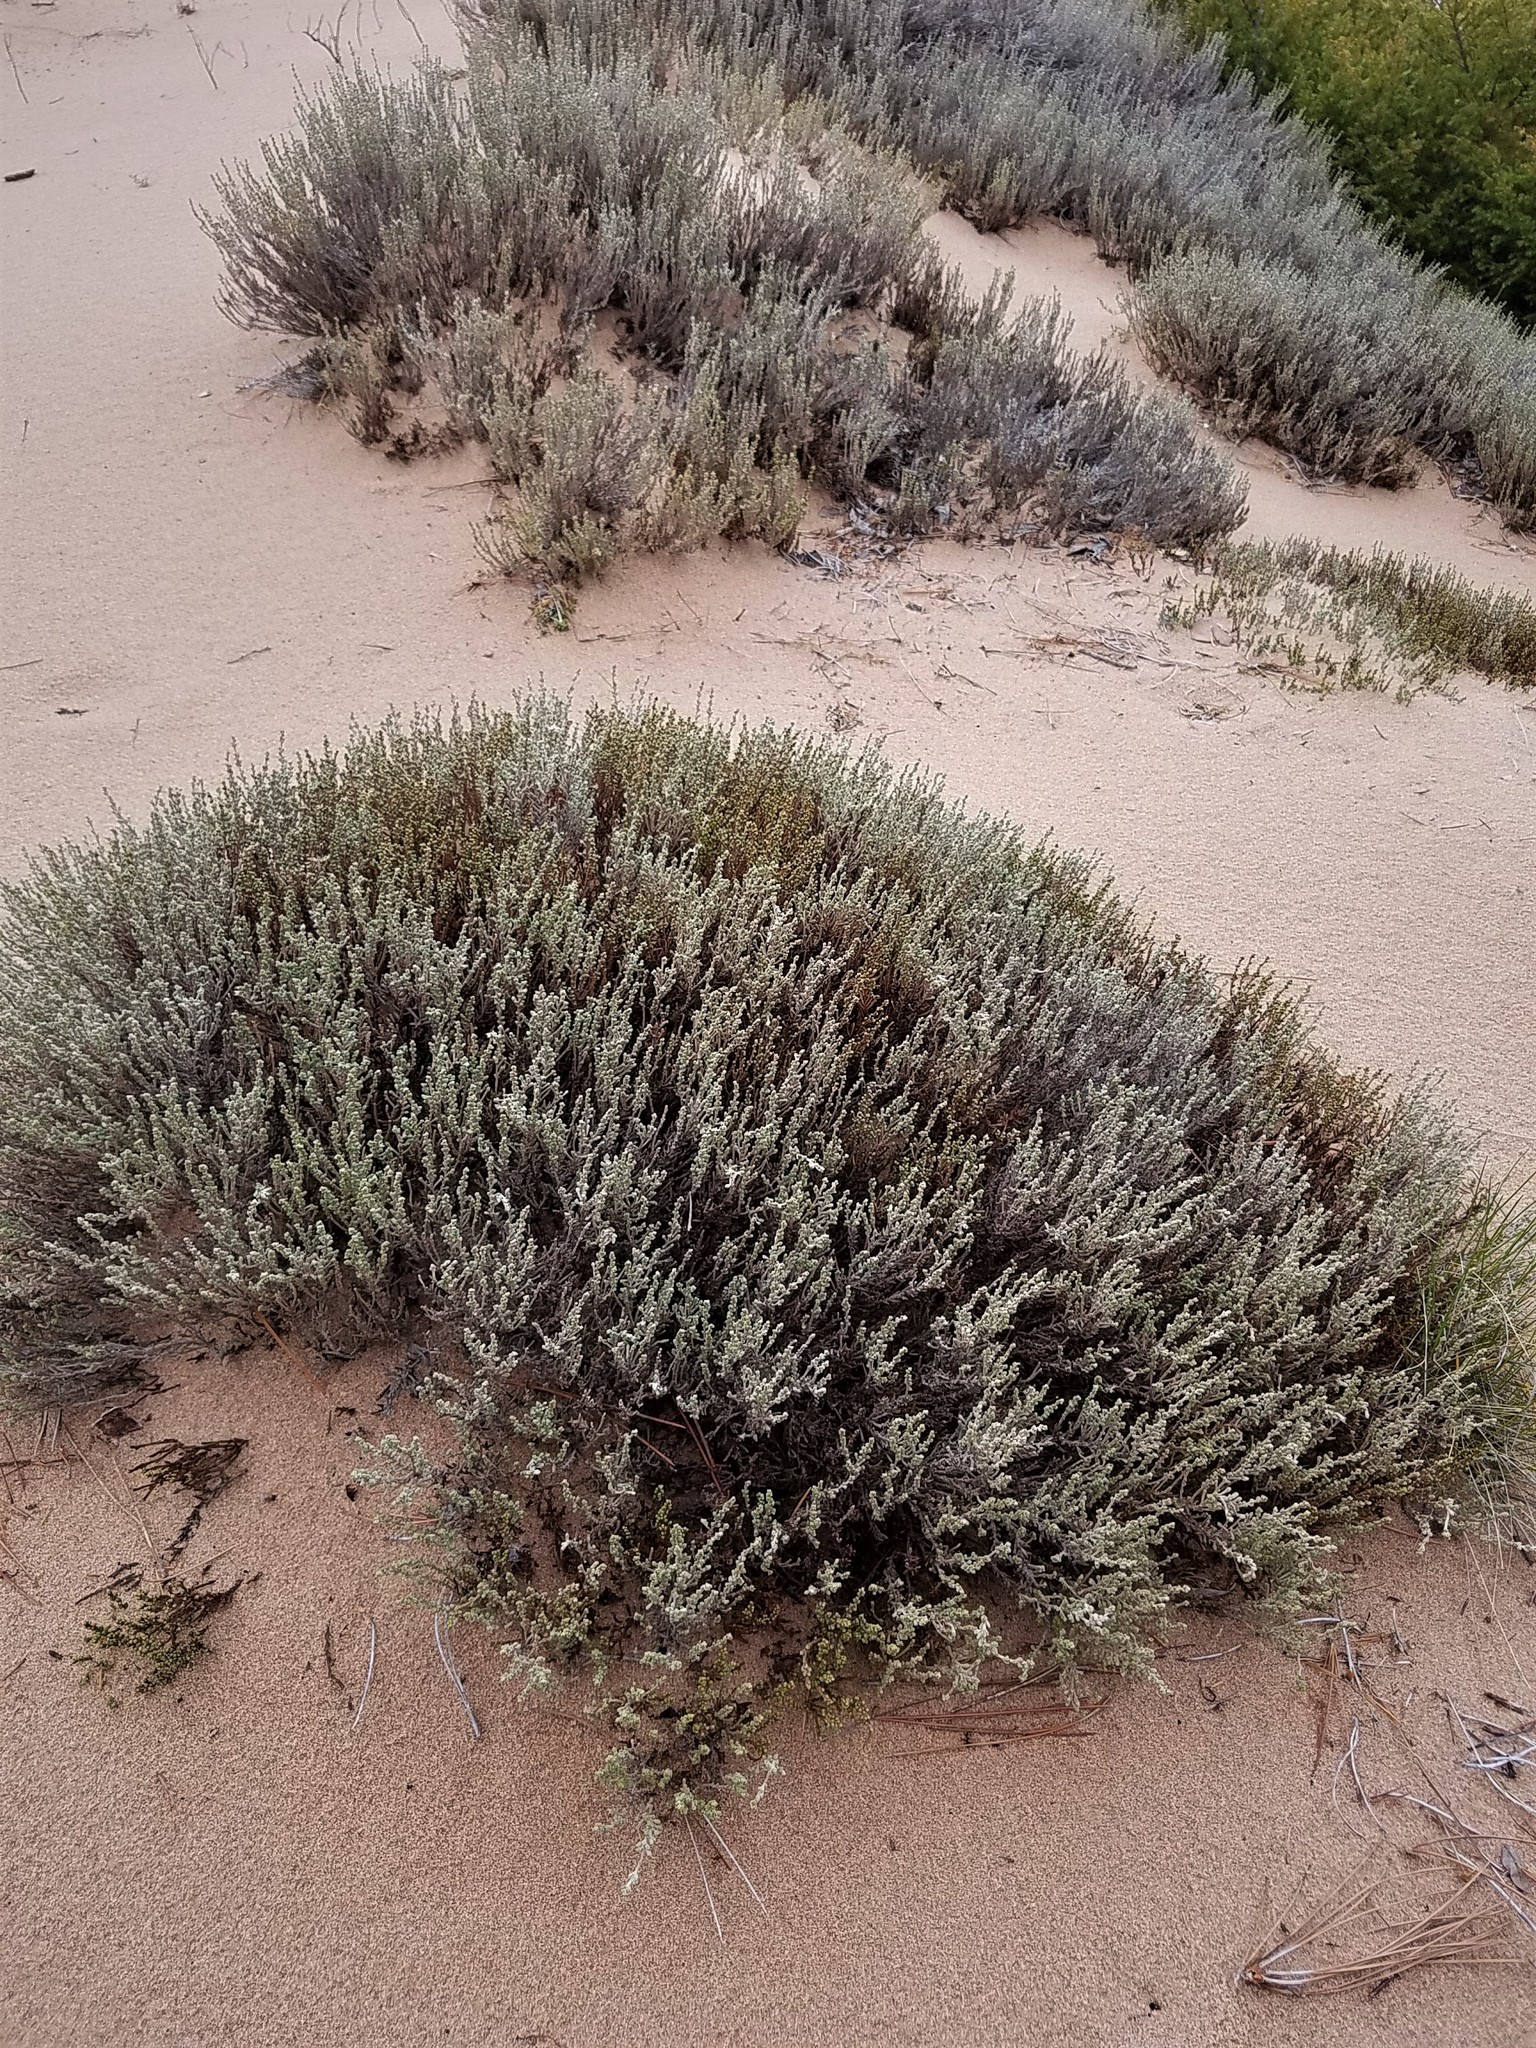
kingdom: Plantae
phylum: Tracheophyta
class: Magnoliopsida
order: Malvales
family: Cistaceae
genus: Hudsonia
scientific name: Hudsonia tomentosa
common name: Beach-heath
